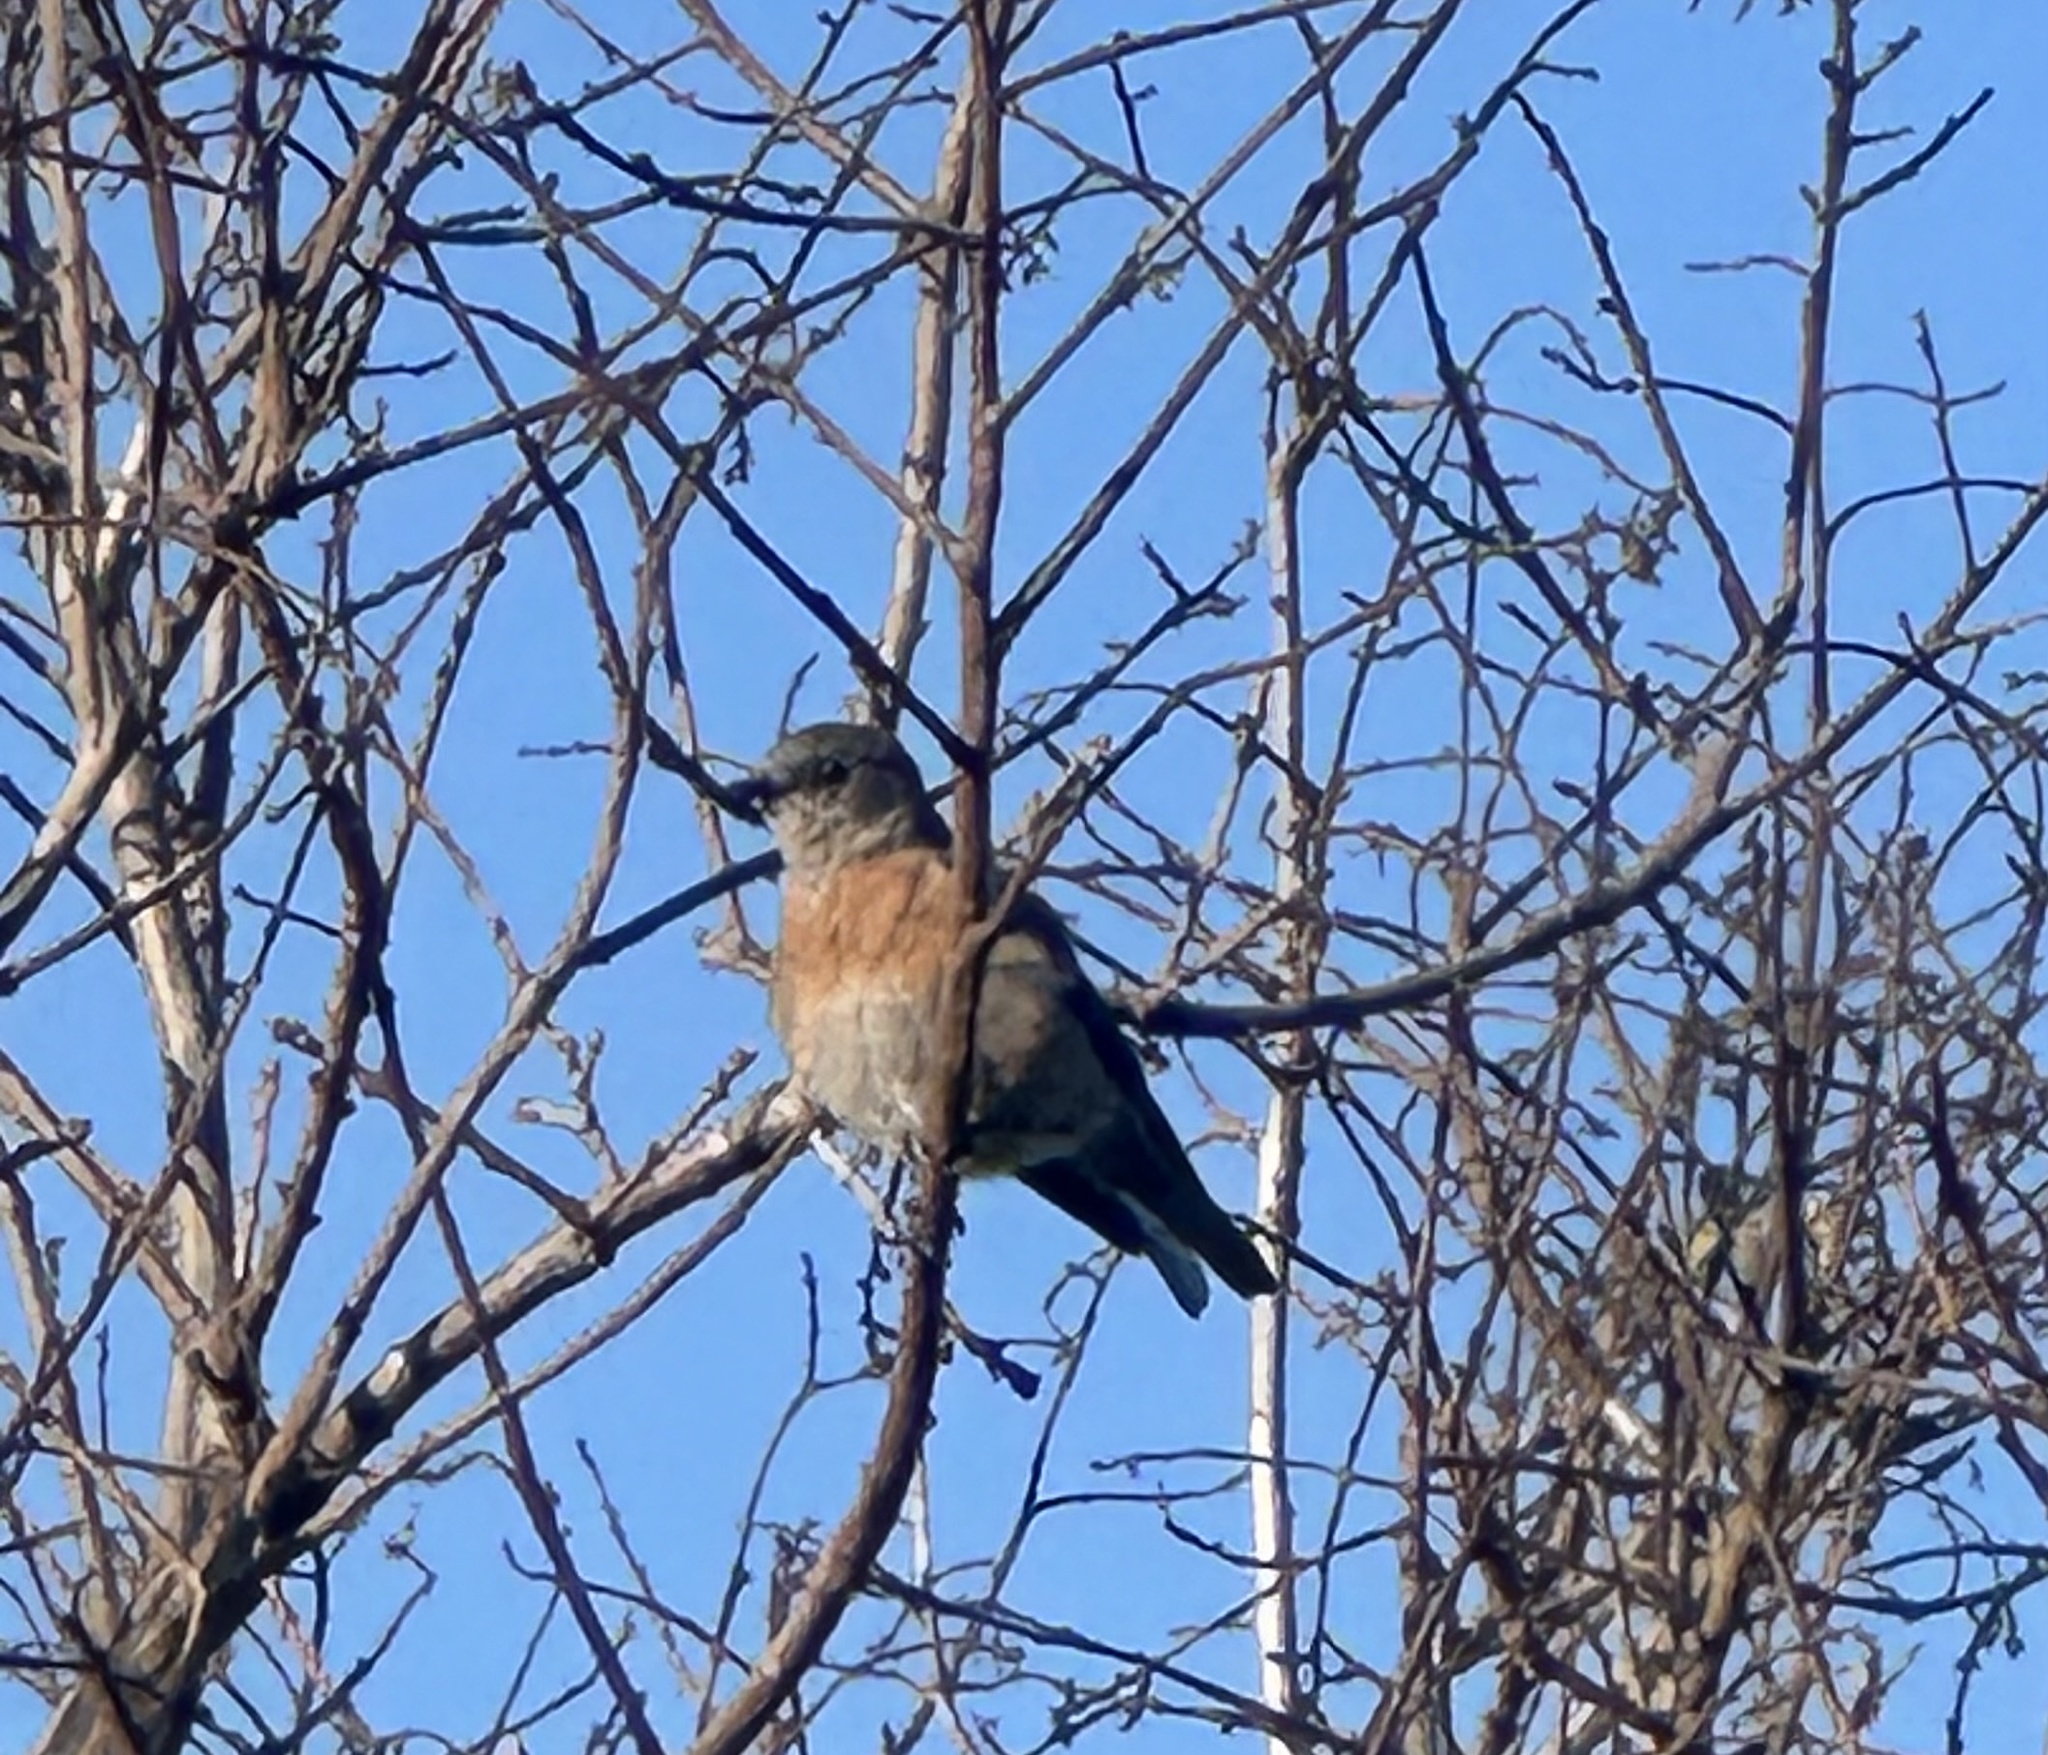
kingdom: Animalia
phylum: Chordata
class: Aves
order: Passeriformes
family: Turdidae
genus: Sialia
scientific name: Sialia mexicana
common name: Western bluebird
